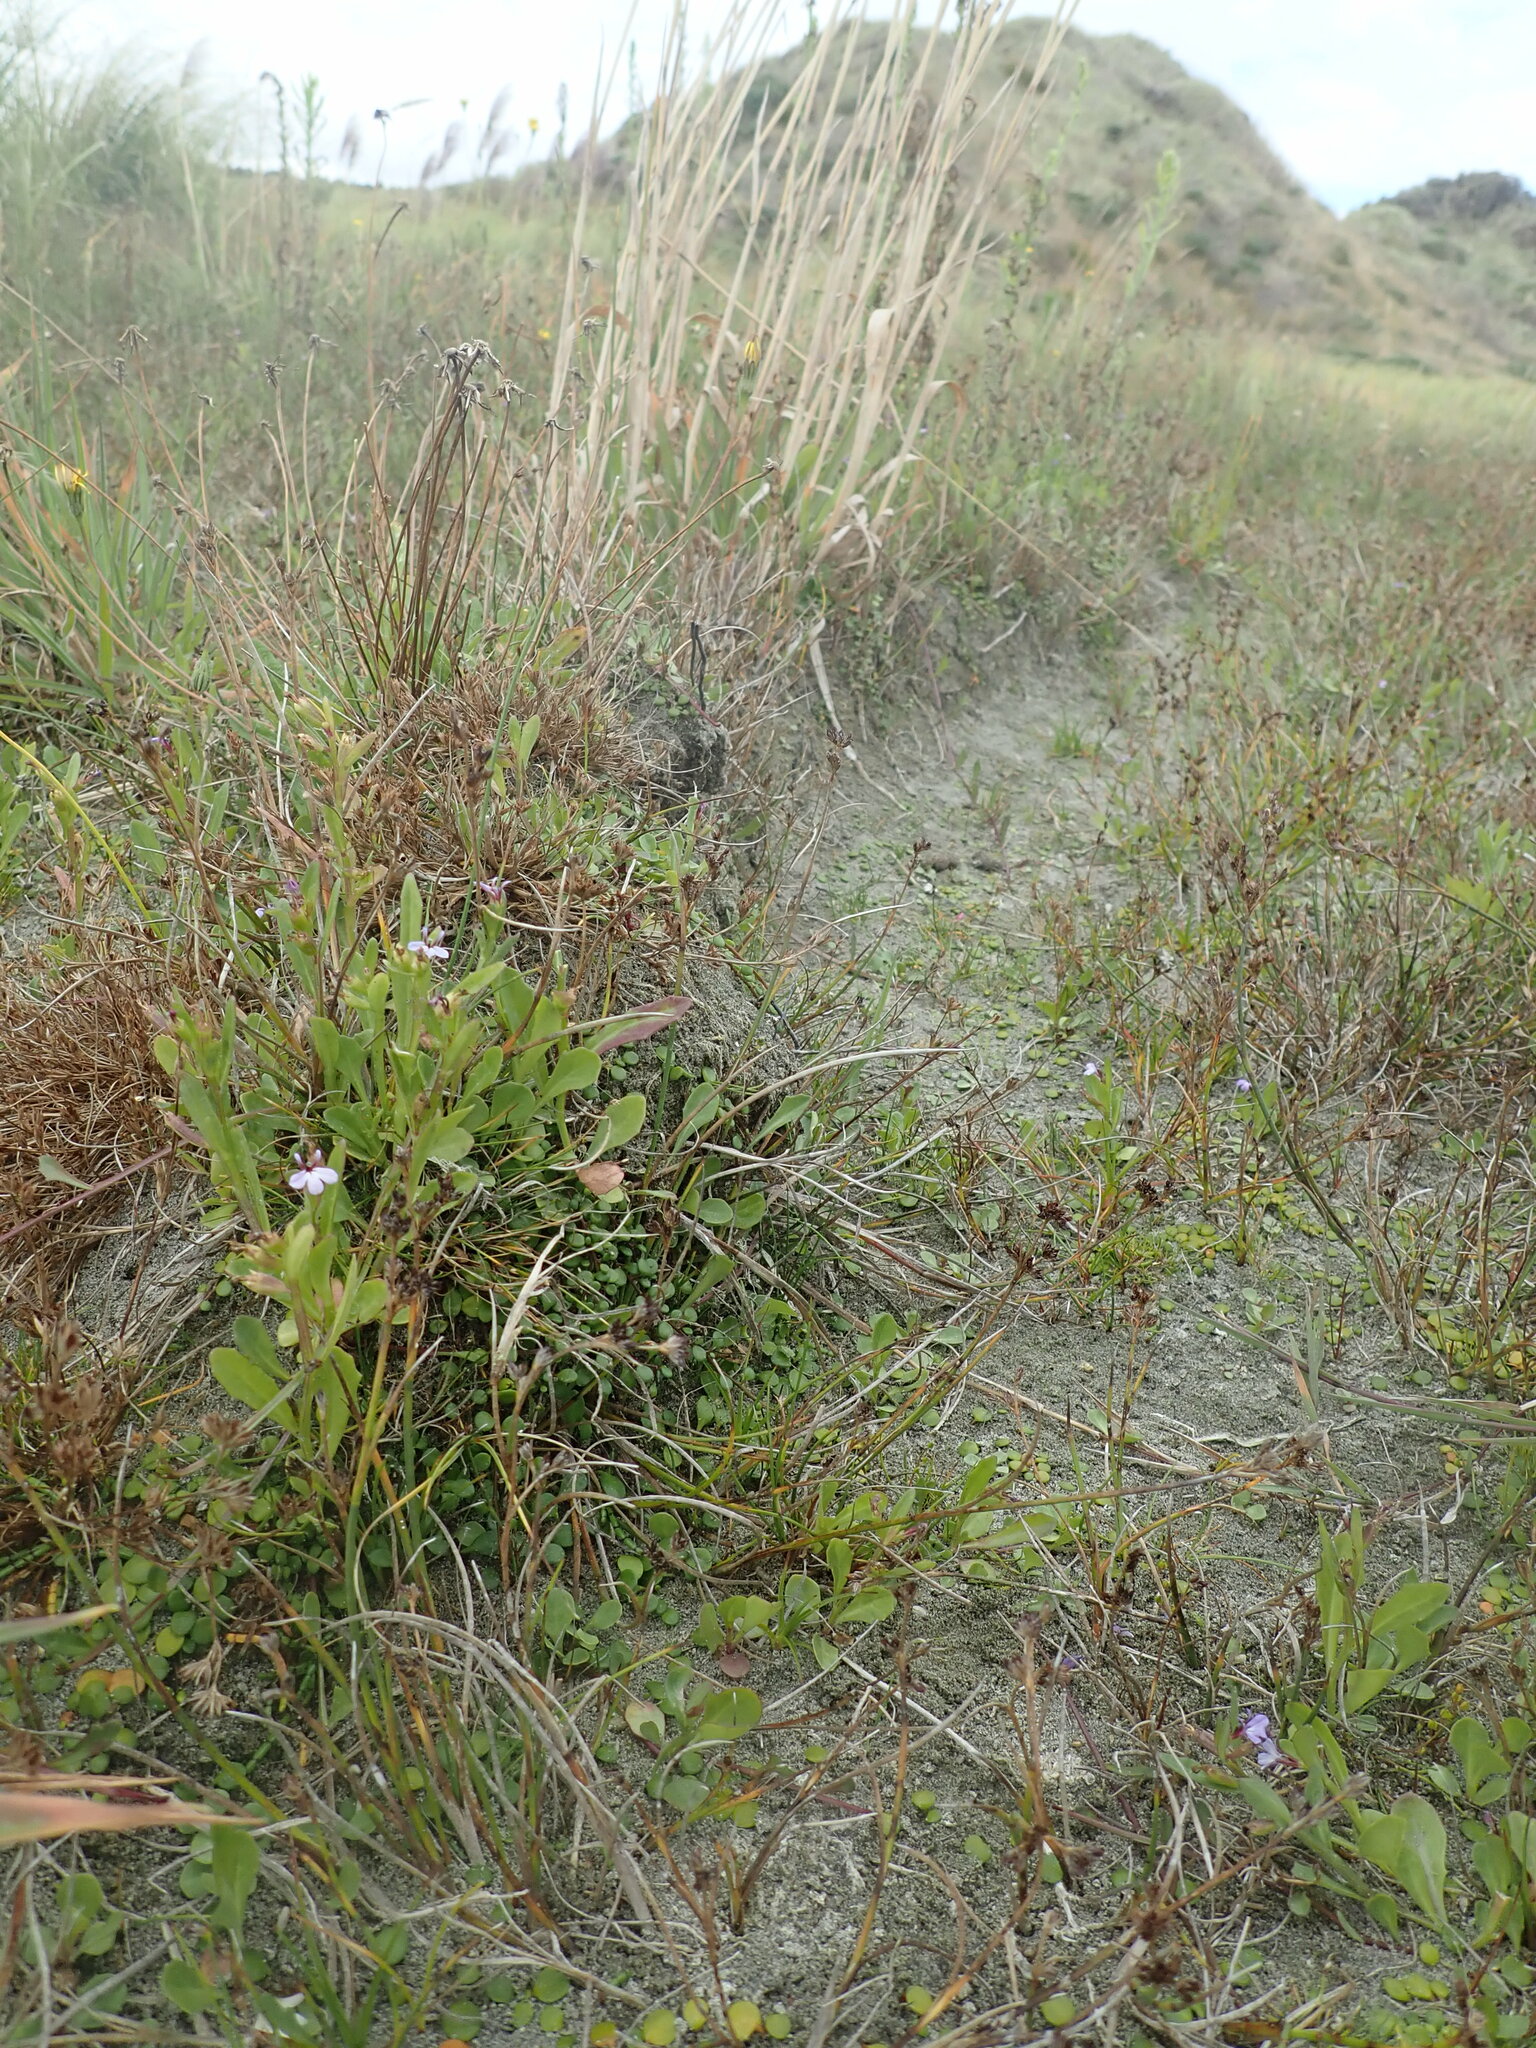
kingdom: Plantae
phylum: Tracheophyta
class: Magnoliopsida
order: Asterales
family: Goodeniaceae
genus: Goodenia
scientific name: Goodenia heenanii
